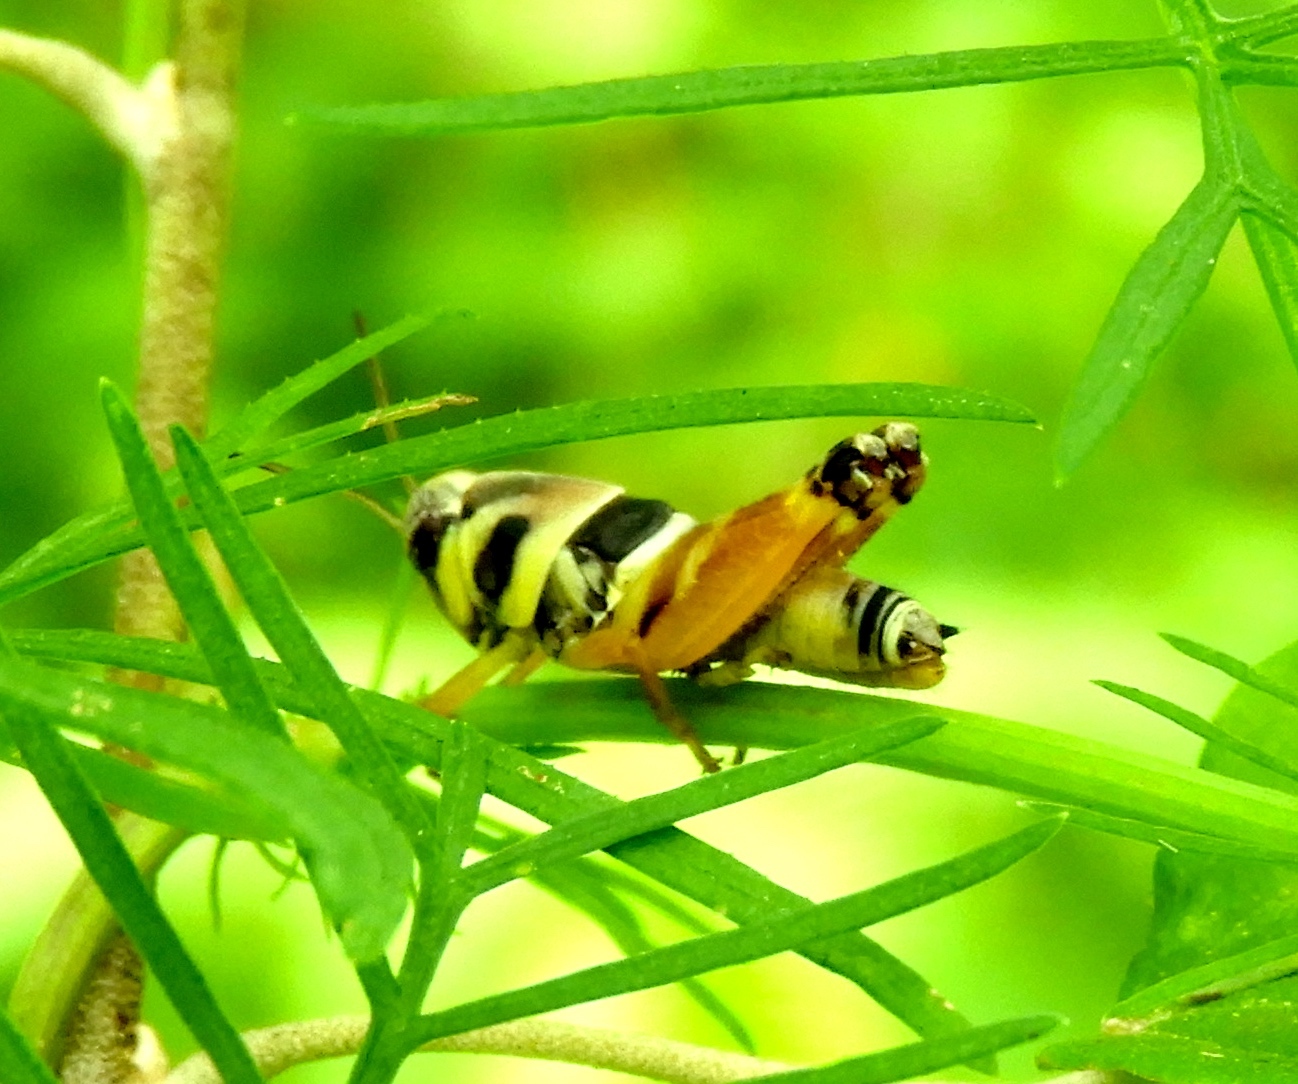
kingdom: Animalia
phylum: Arthropoda
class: Insecta
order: Orthoptera
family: Acrididae
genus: Aidemona
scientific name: Aidemona azteca
